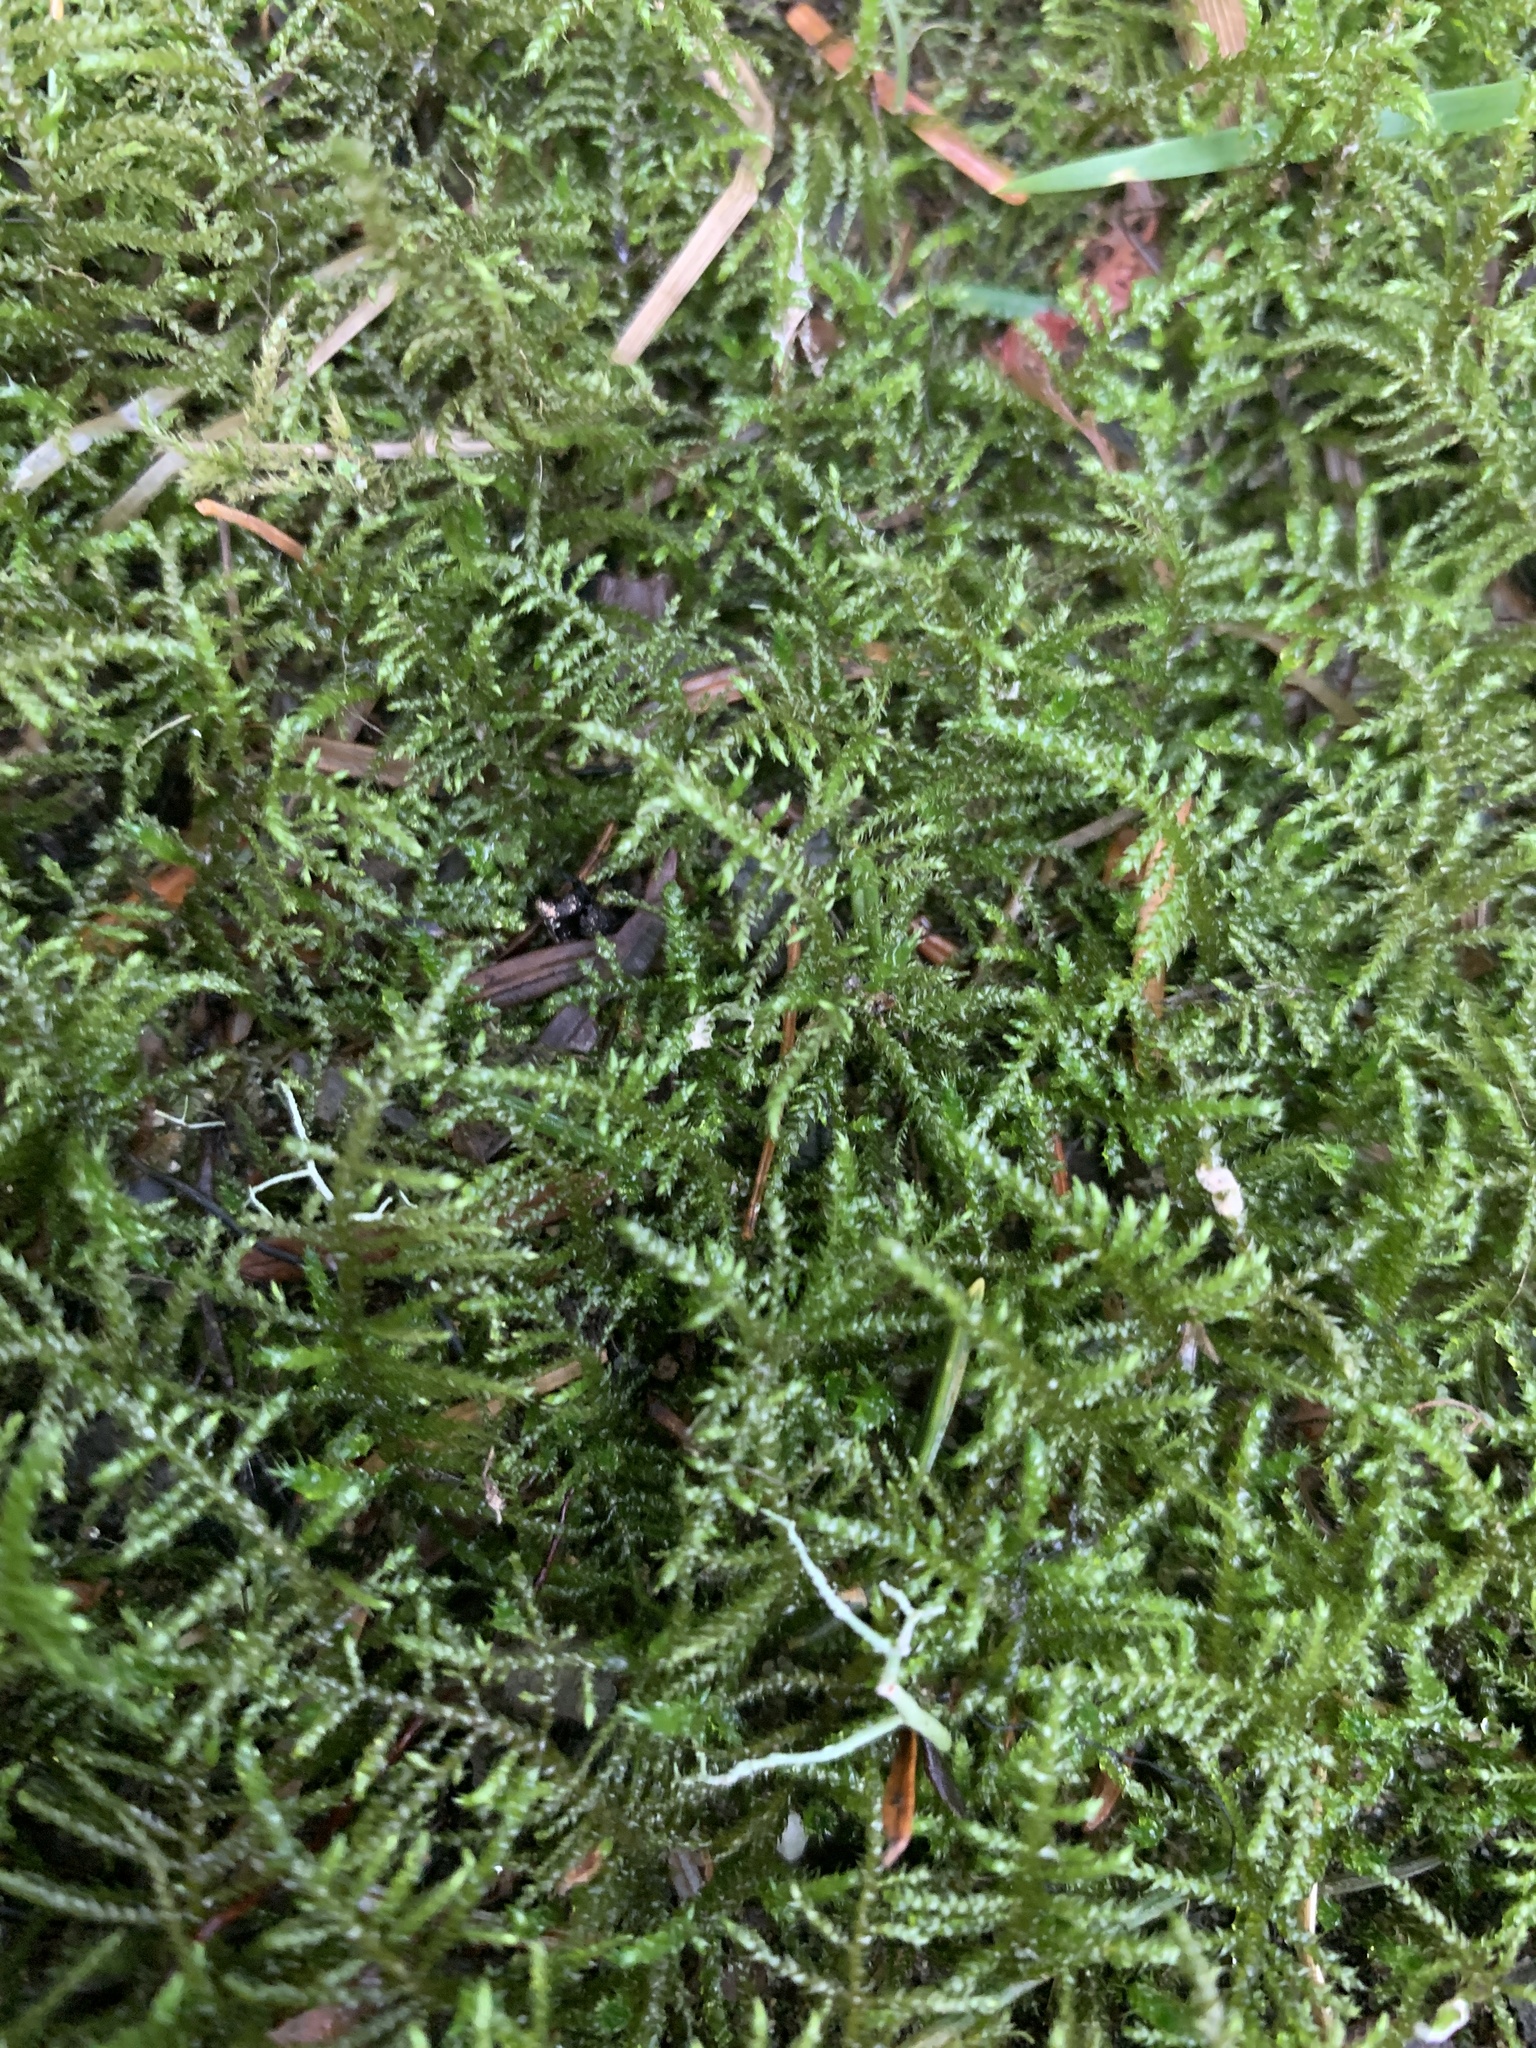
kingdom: Plantae
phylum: Bryophyta
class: Bryopsida
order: Hypnales
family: Brachytheciaceae
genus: Kindbergia
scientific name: Kindbergia praelonga
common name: Slender beaked moss
